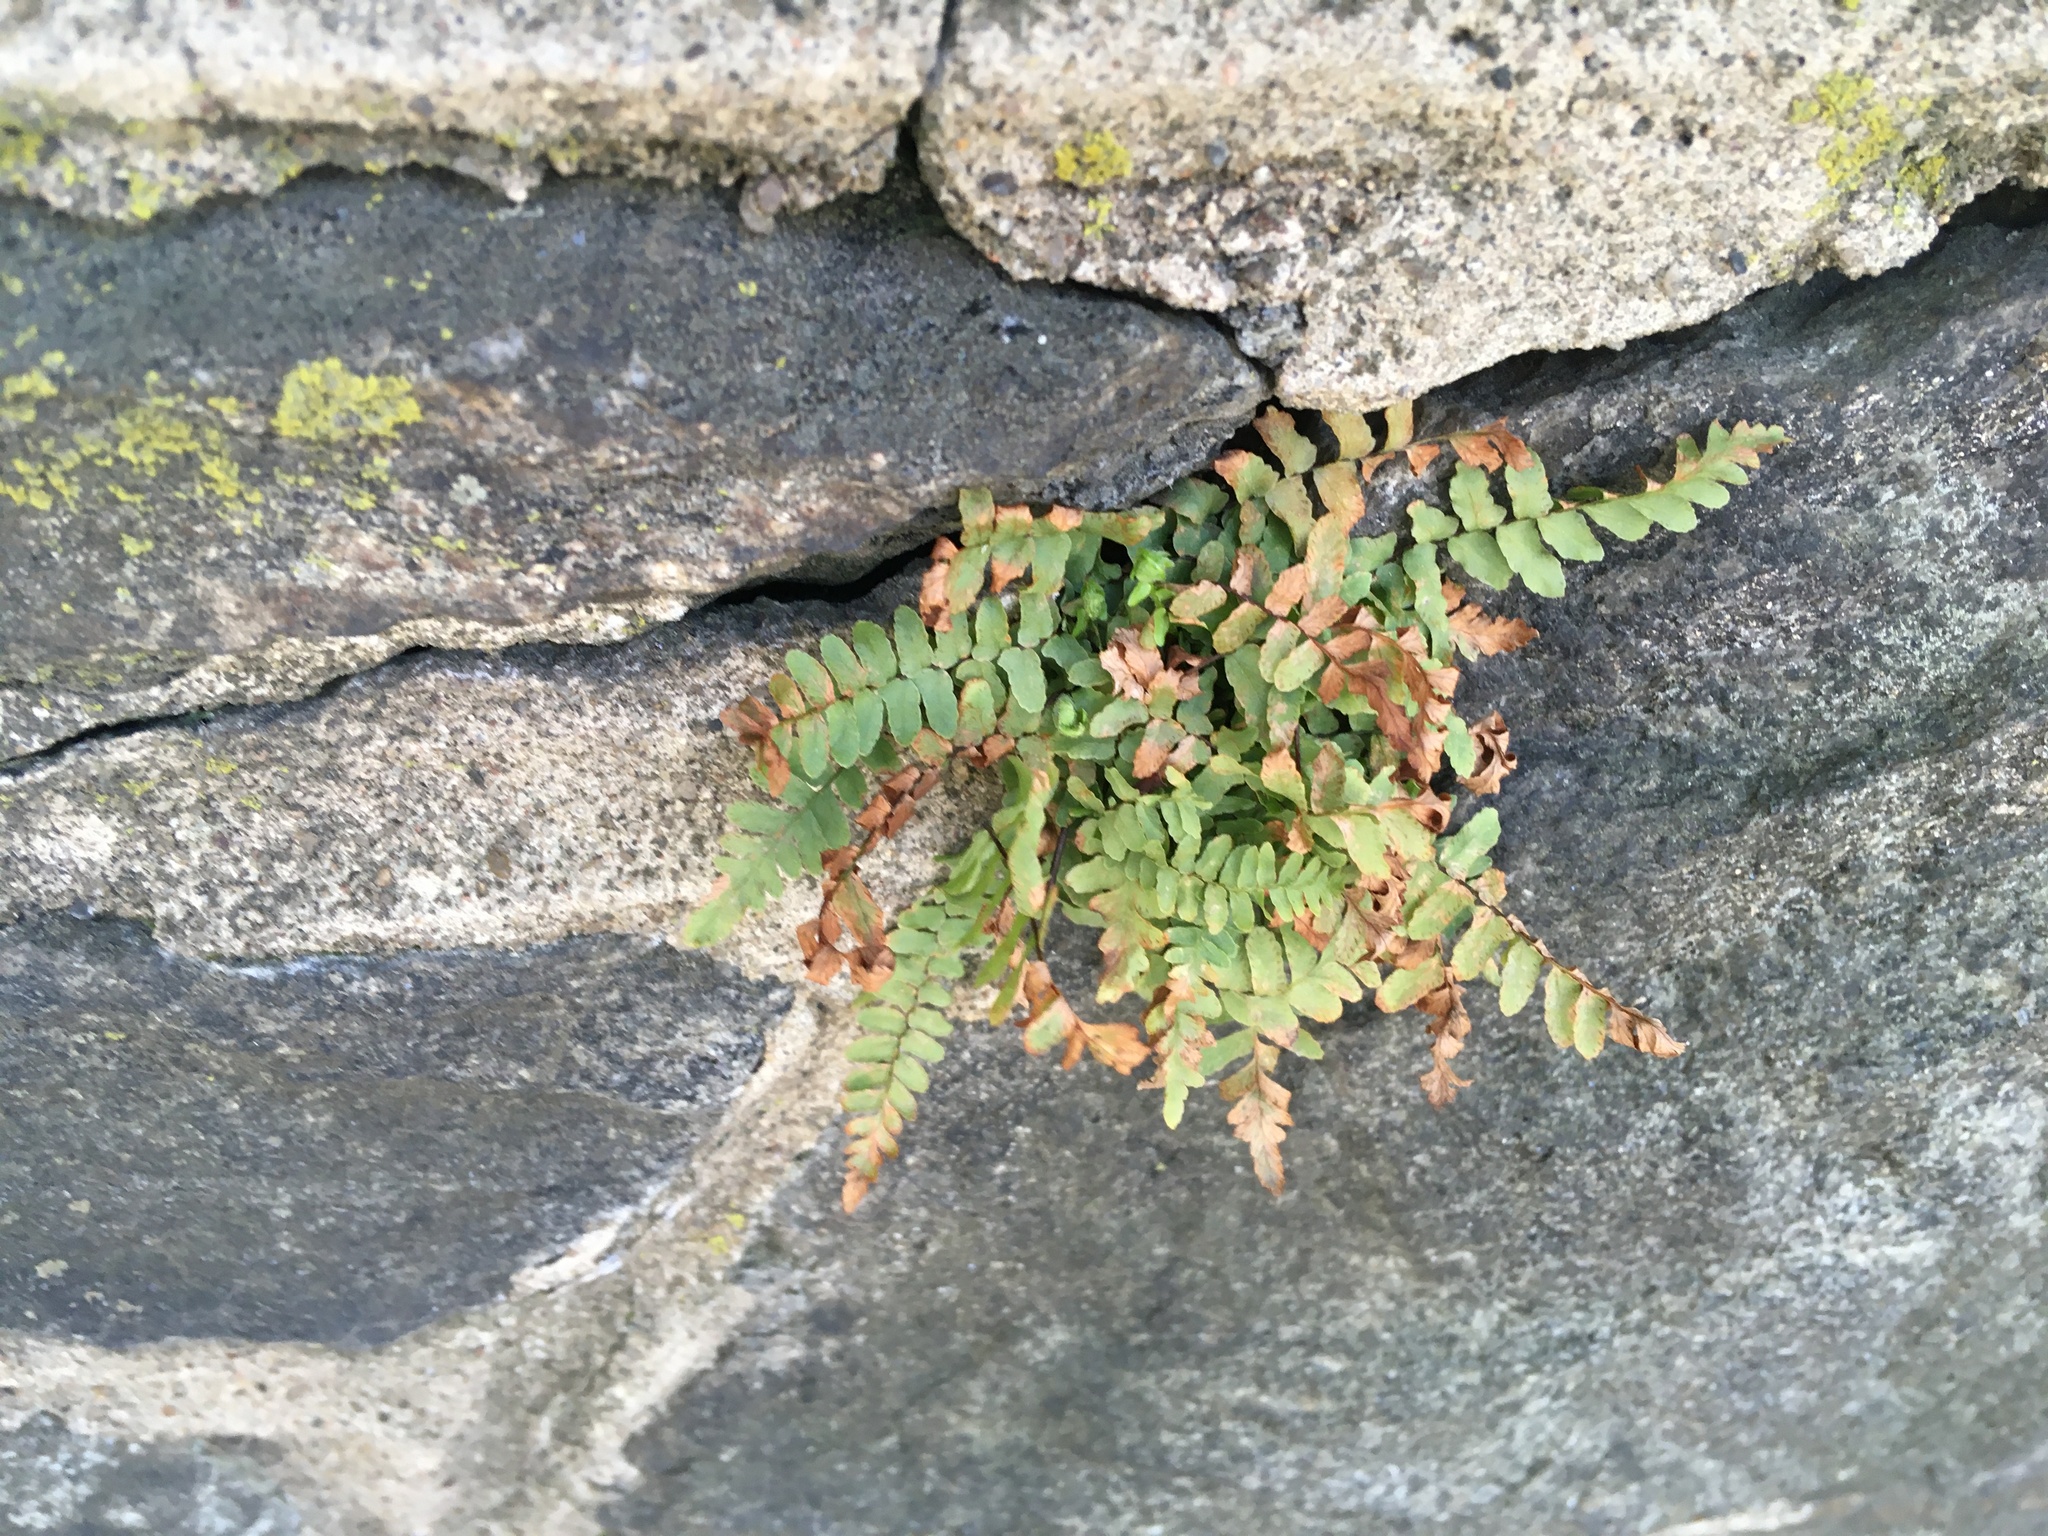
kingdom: Plantae
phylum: Tracheophyta
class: Polypodiopsida
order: Polypodiales
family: Aspleniaceae
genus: Asplenium
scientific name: Asplenium platyneuron
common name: Ebony spleenwort
